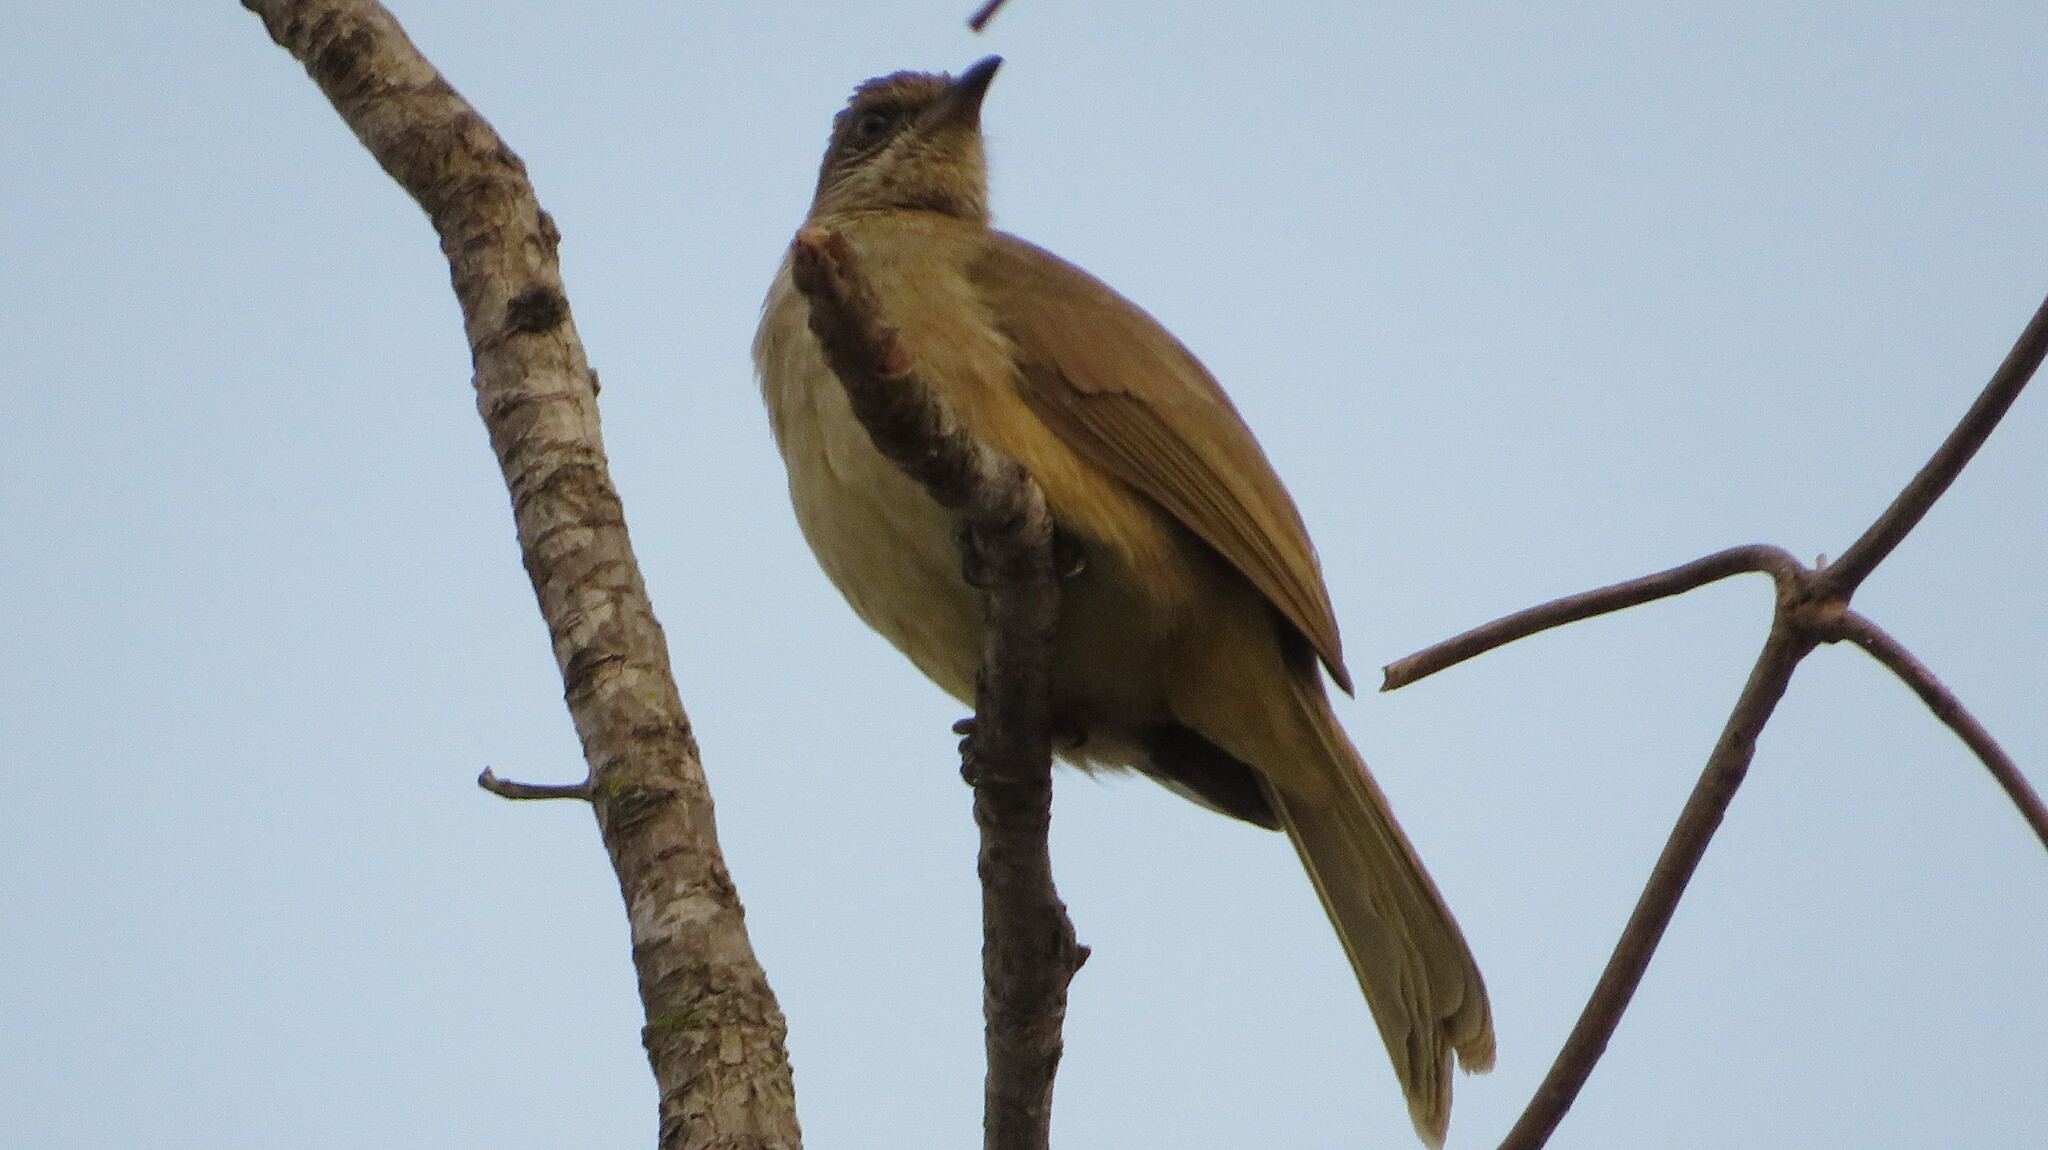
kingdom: Animalia
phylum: Chordata
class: Aves
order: Passeriformes
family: Pycnonotidae
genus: Pycnonotus
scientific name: Pycnonotus blanfordi
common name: Streak-eared bulbul
